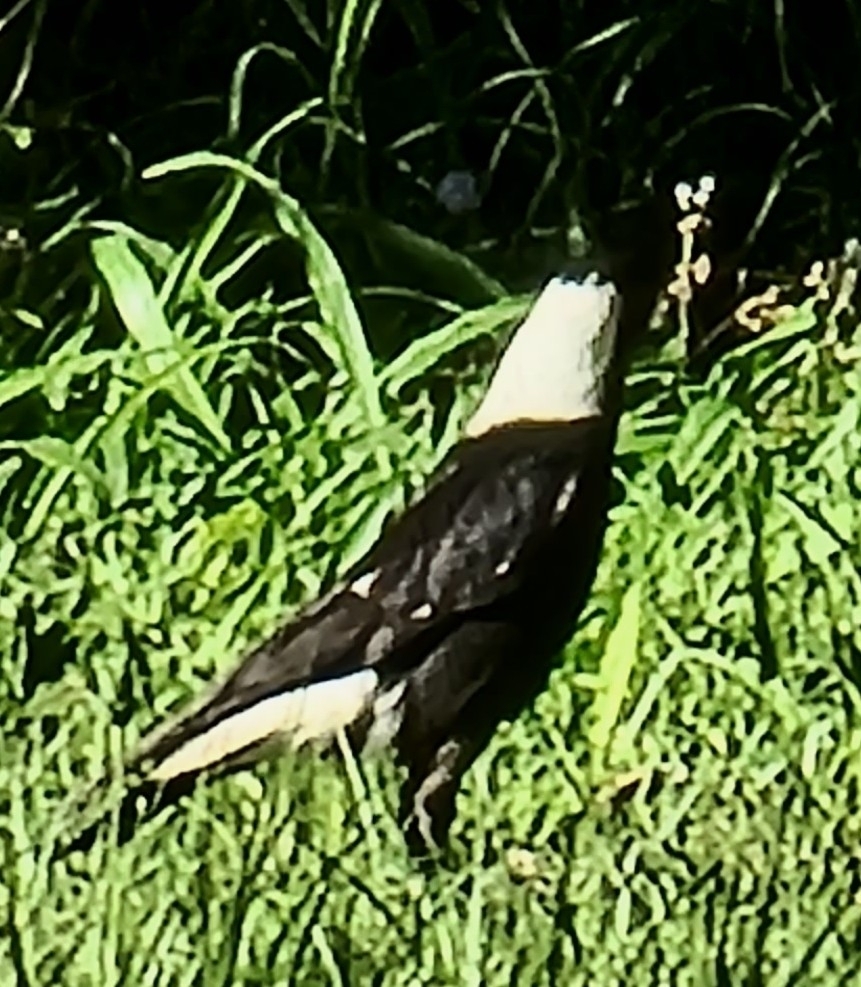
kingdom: Animalia
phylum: Chordata
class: Aves
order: Passeriformes
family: Cracticidae
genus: Gymnorhina
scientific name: Gymnorhina tibicen
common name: Australian magpie
